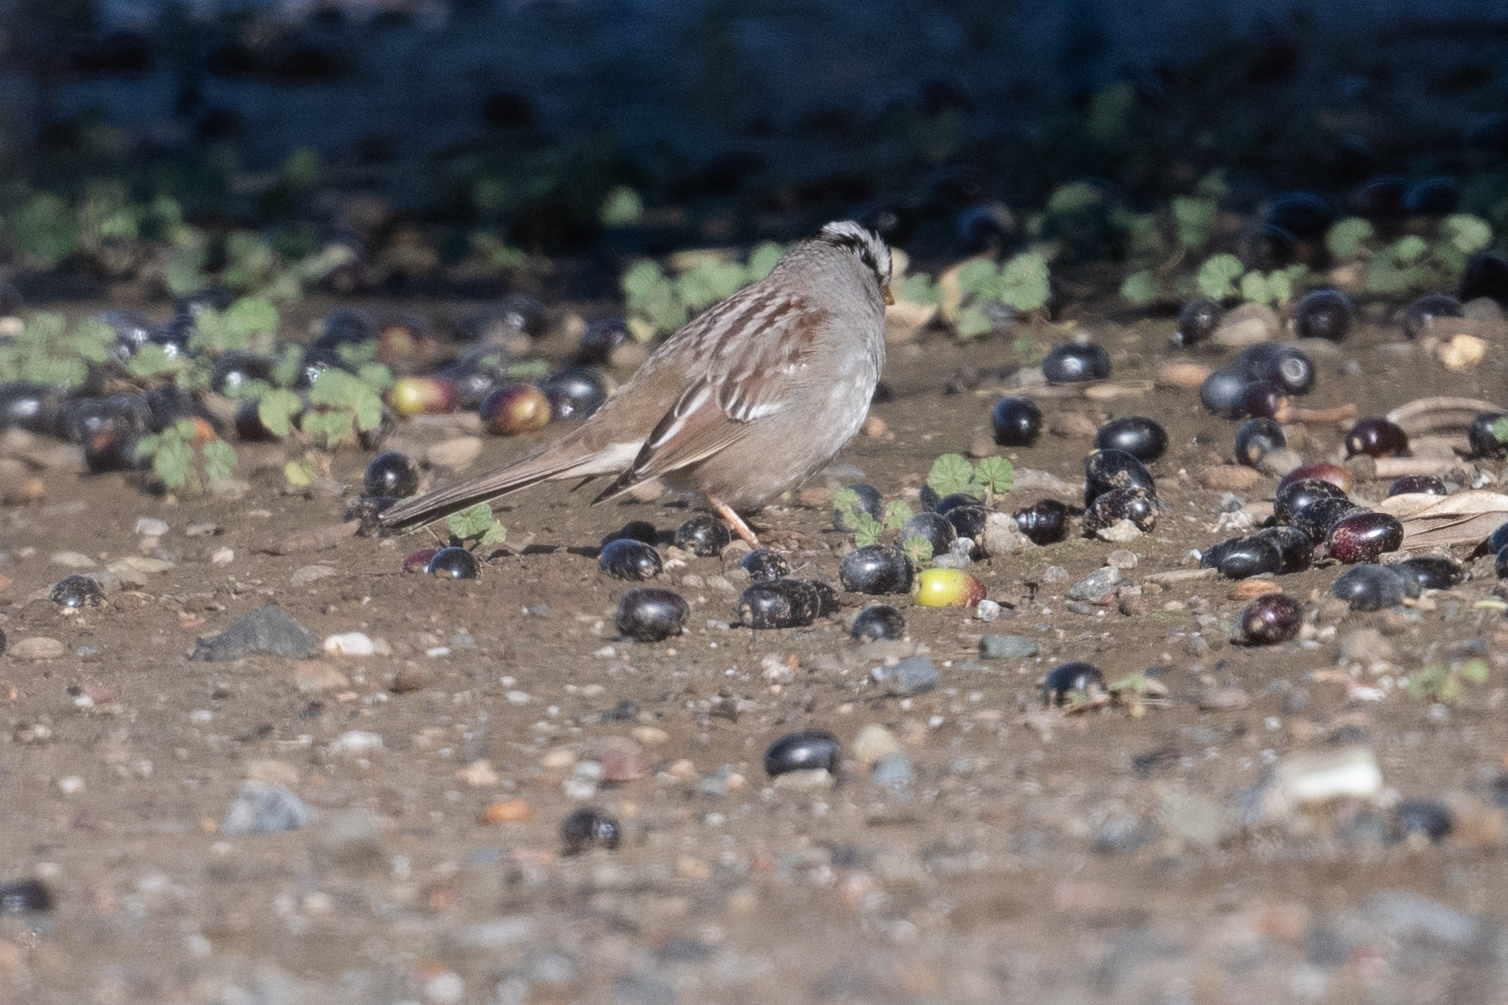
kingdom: Animalia
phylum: Chordata
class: Aves
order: Passeriformes
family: Passerellidae
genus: Zonotrichia
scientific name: Zonotrichia leucophrys
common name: White-crowned sparrow
